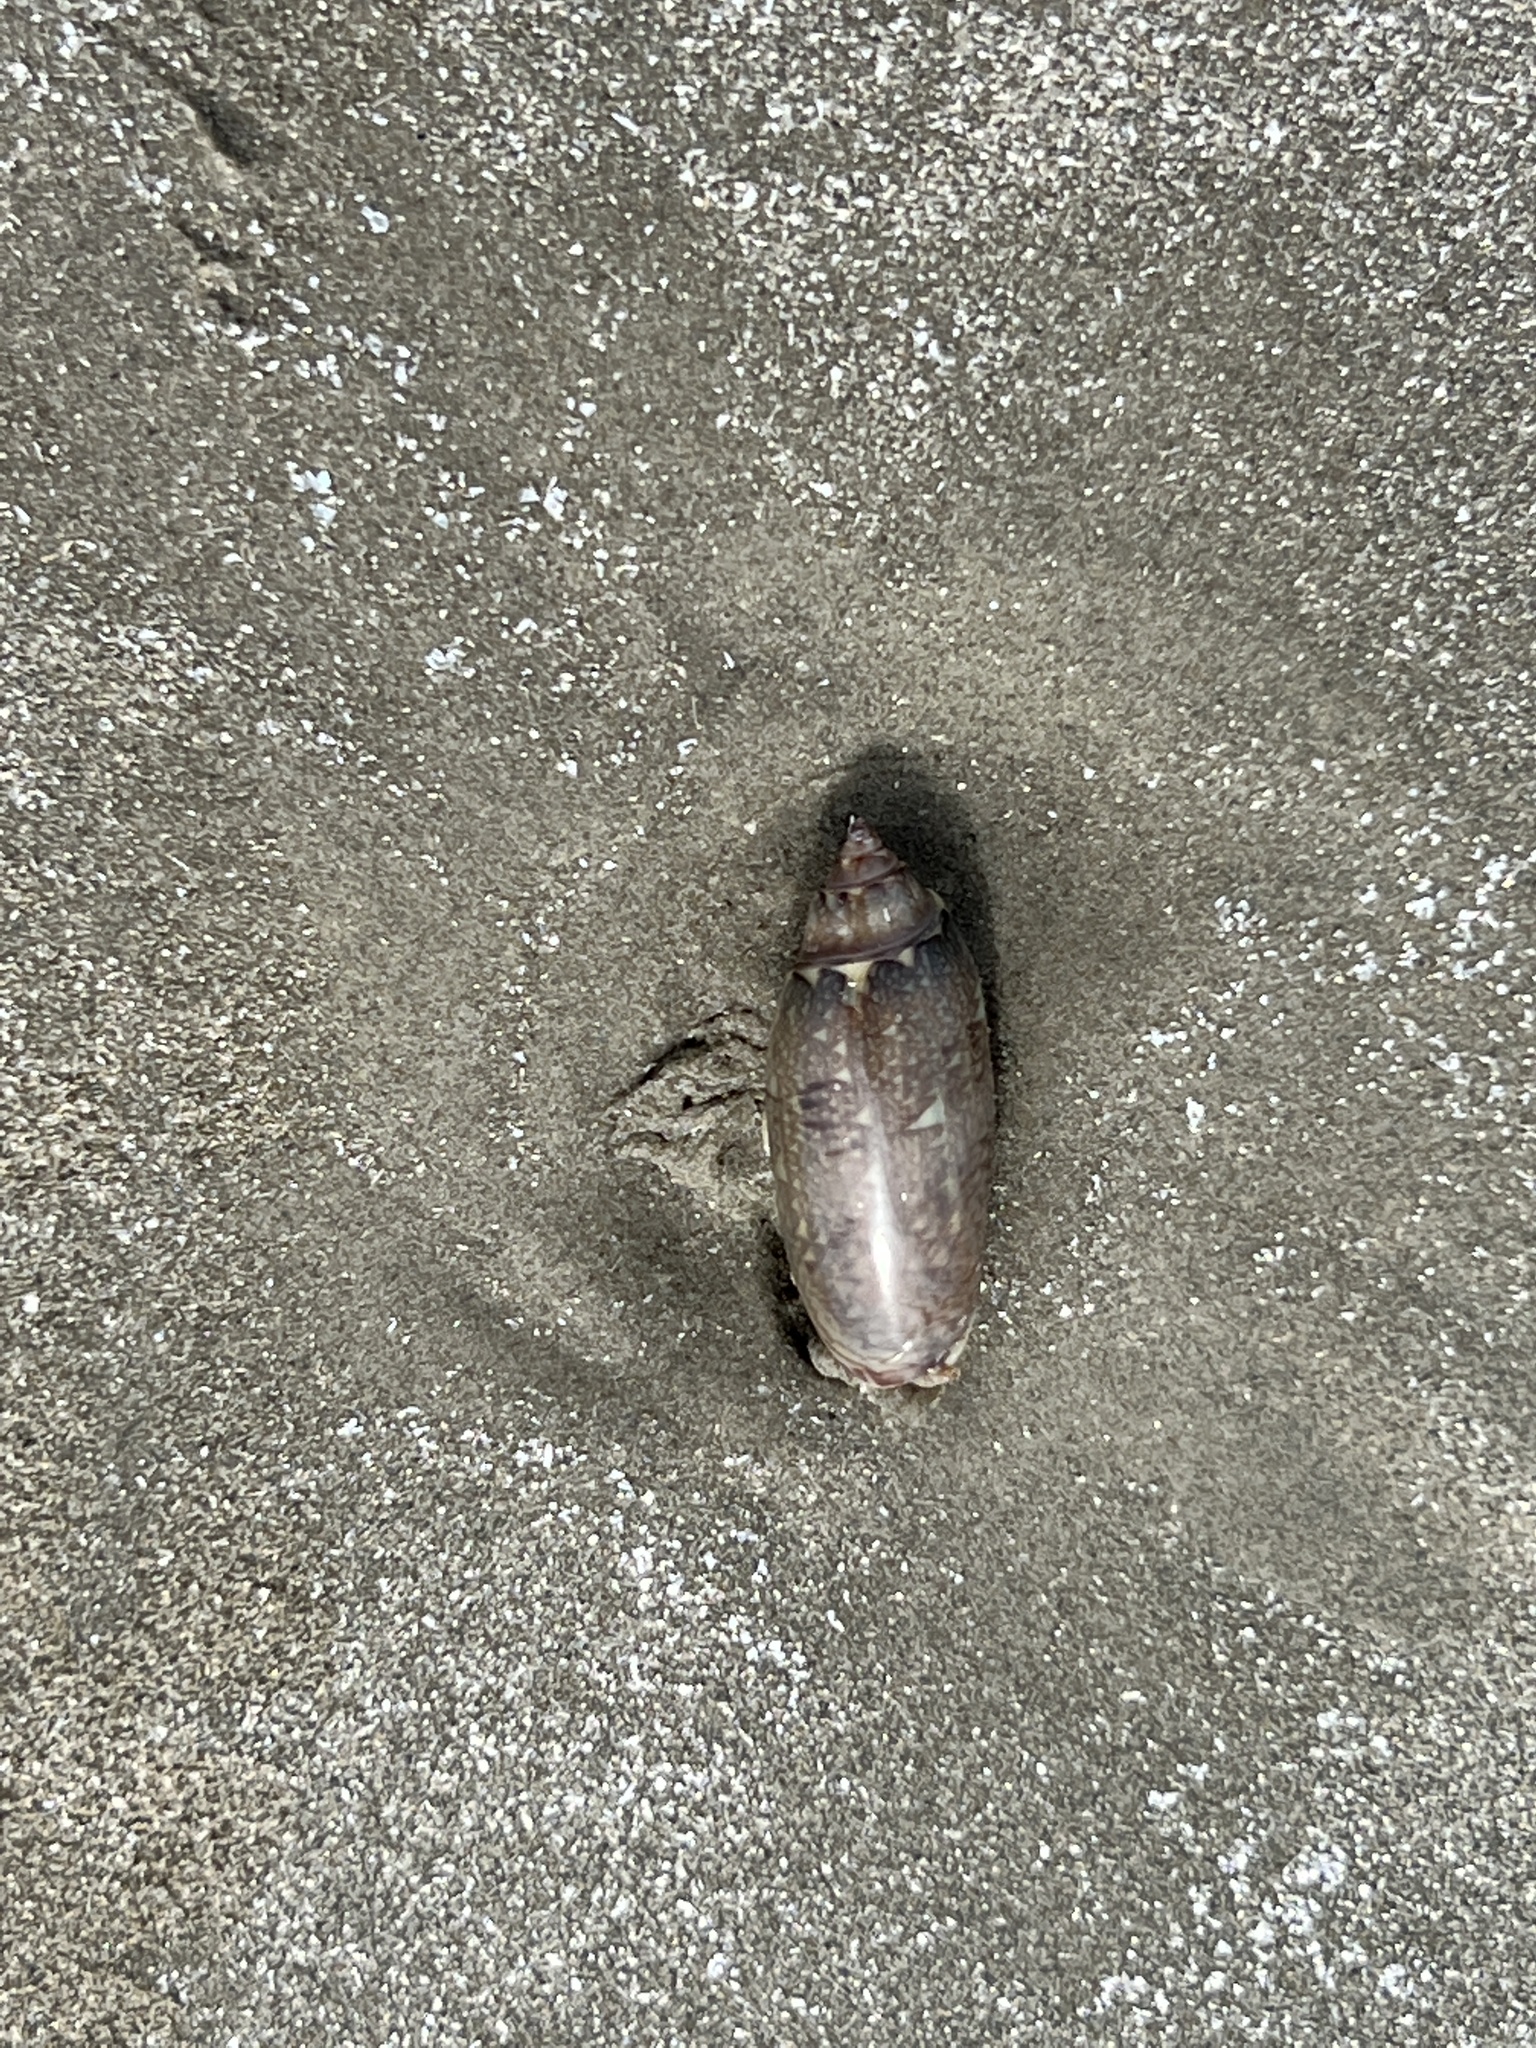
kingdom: Animalia
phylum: Mollusca
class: Gastropoda
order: Neogastropoda
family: Olividae
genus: Oliva
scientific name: Oliva sayana
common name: Lettered olive
